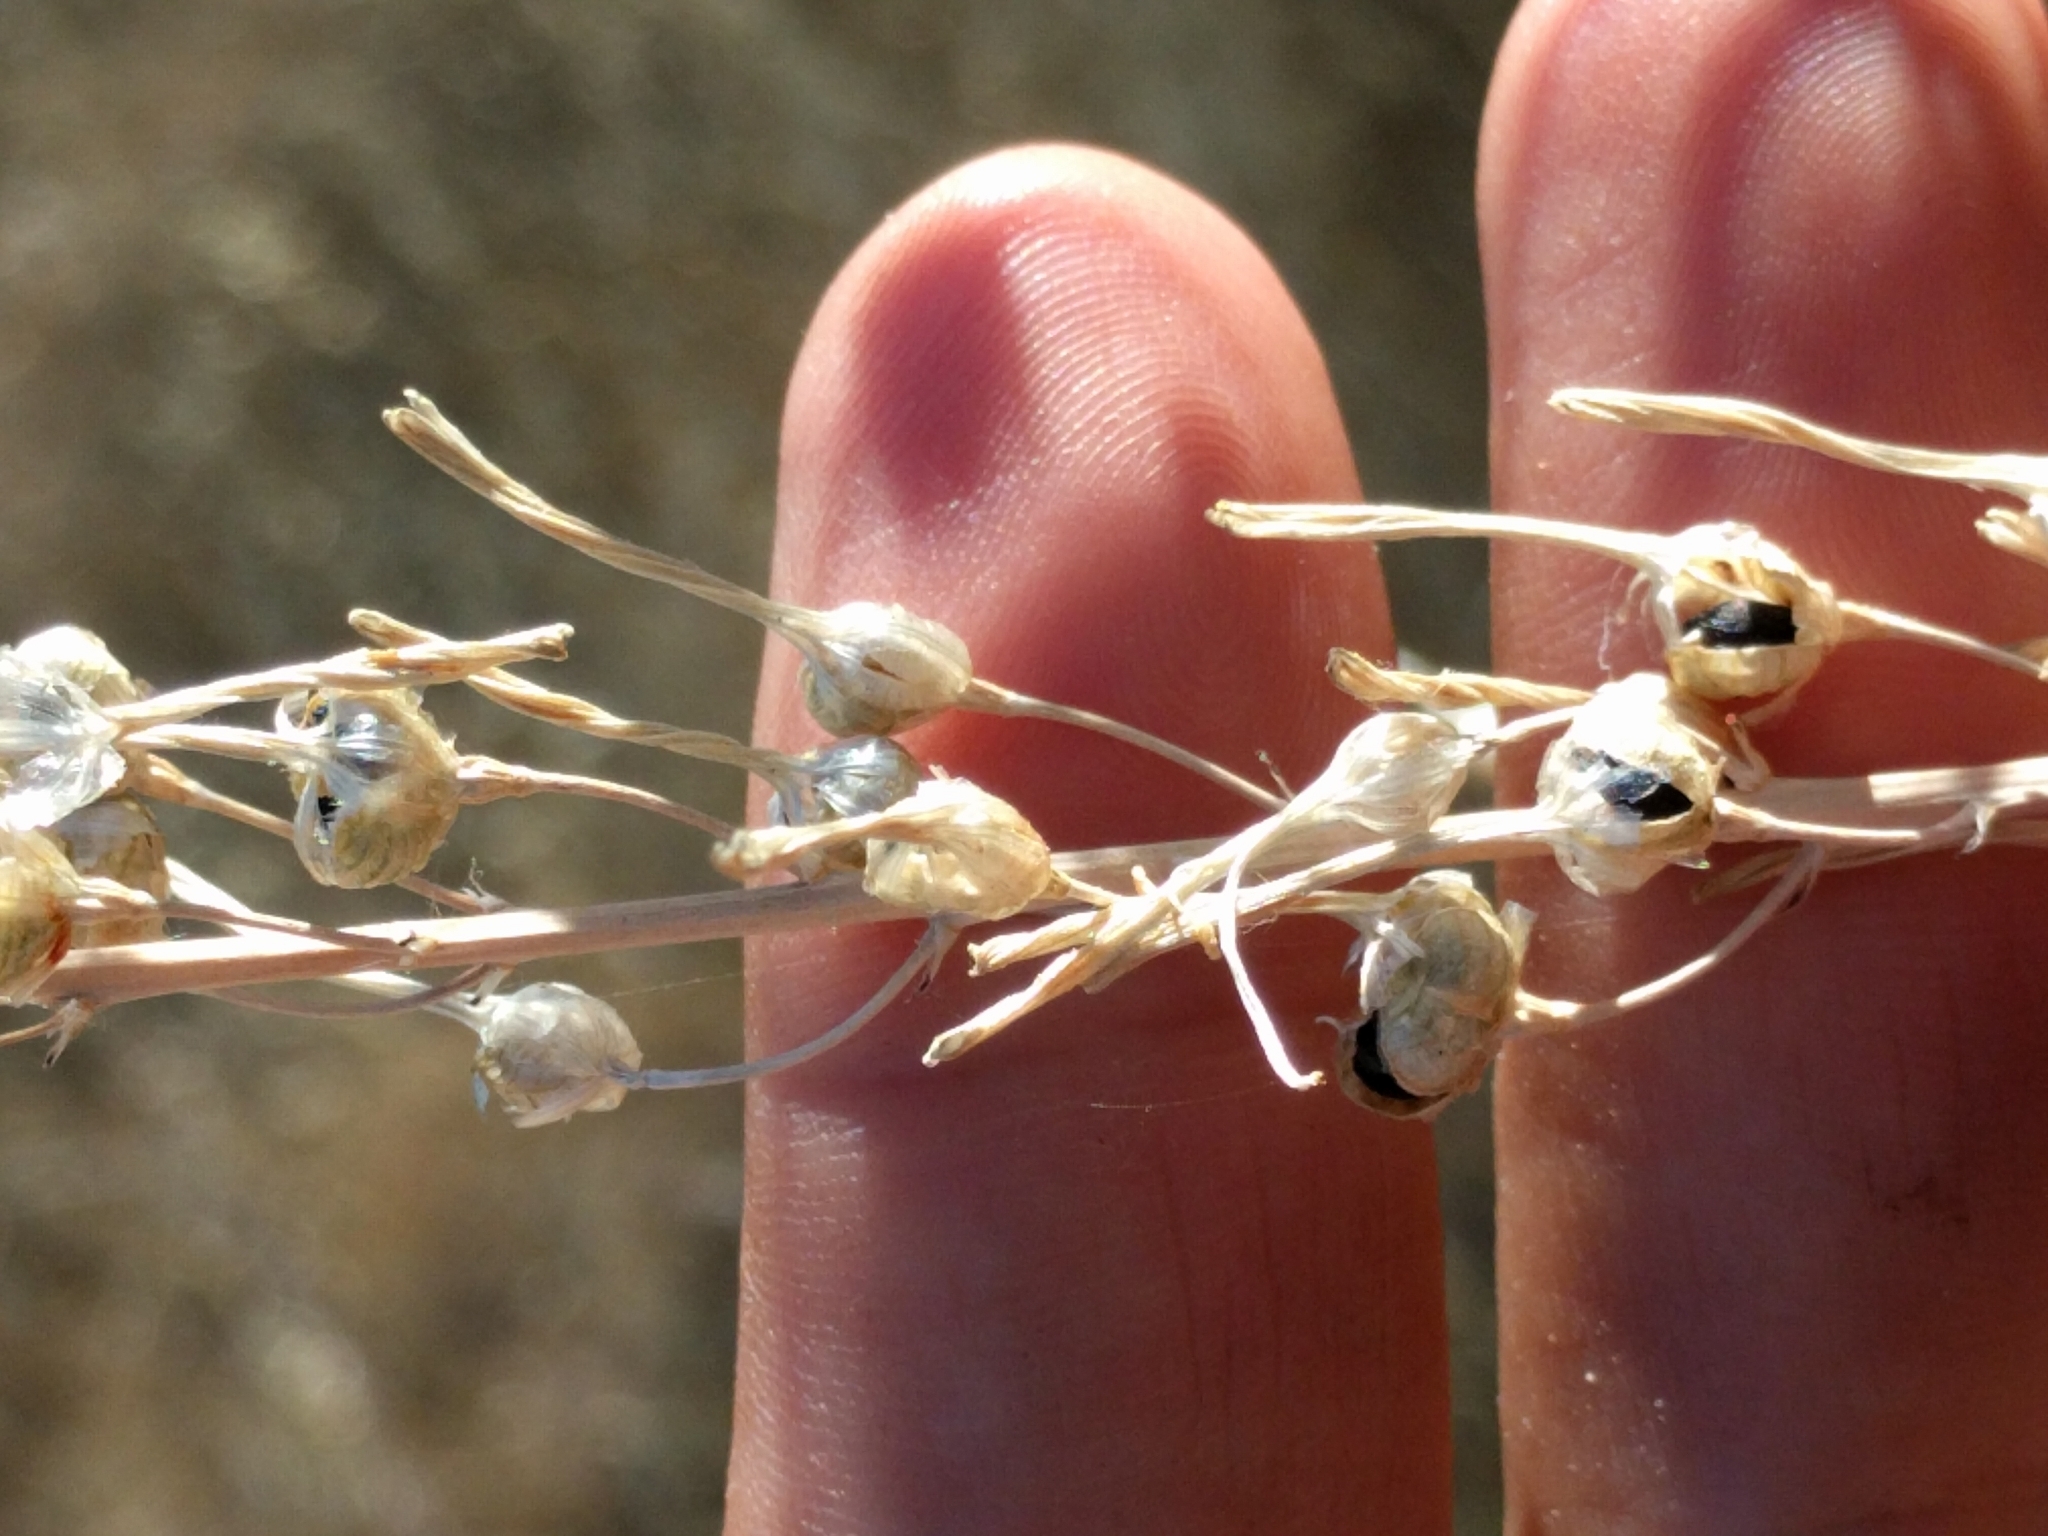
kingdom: Plantae
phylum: Tracheophyta
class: Liliopsida
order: Asparagales
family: Asparagaceae
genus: Chlorogalum
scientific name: Chlorogalum pomeridianum
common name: Amole
